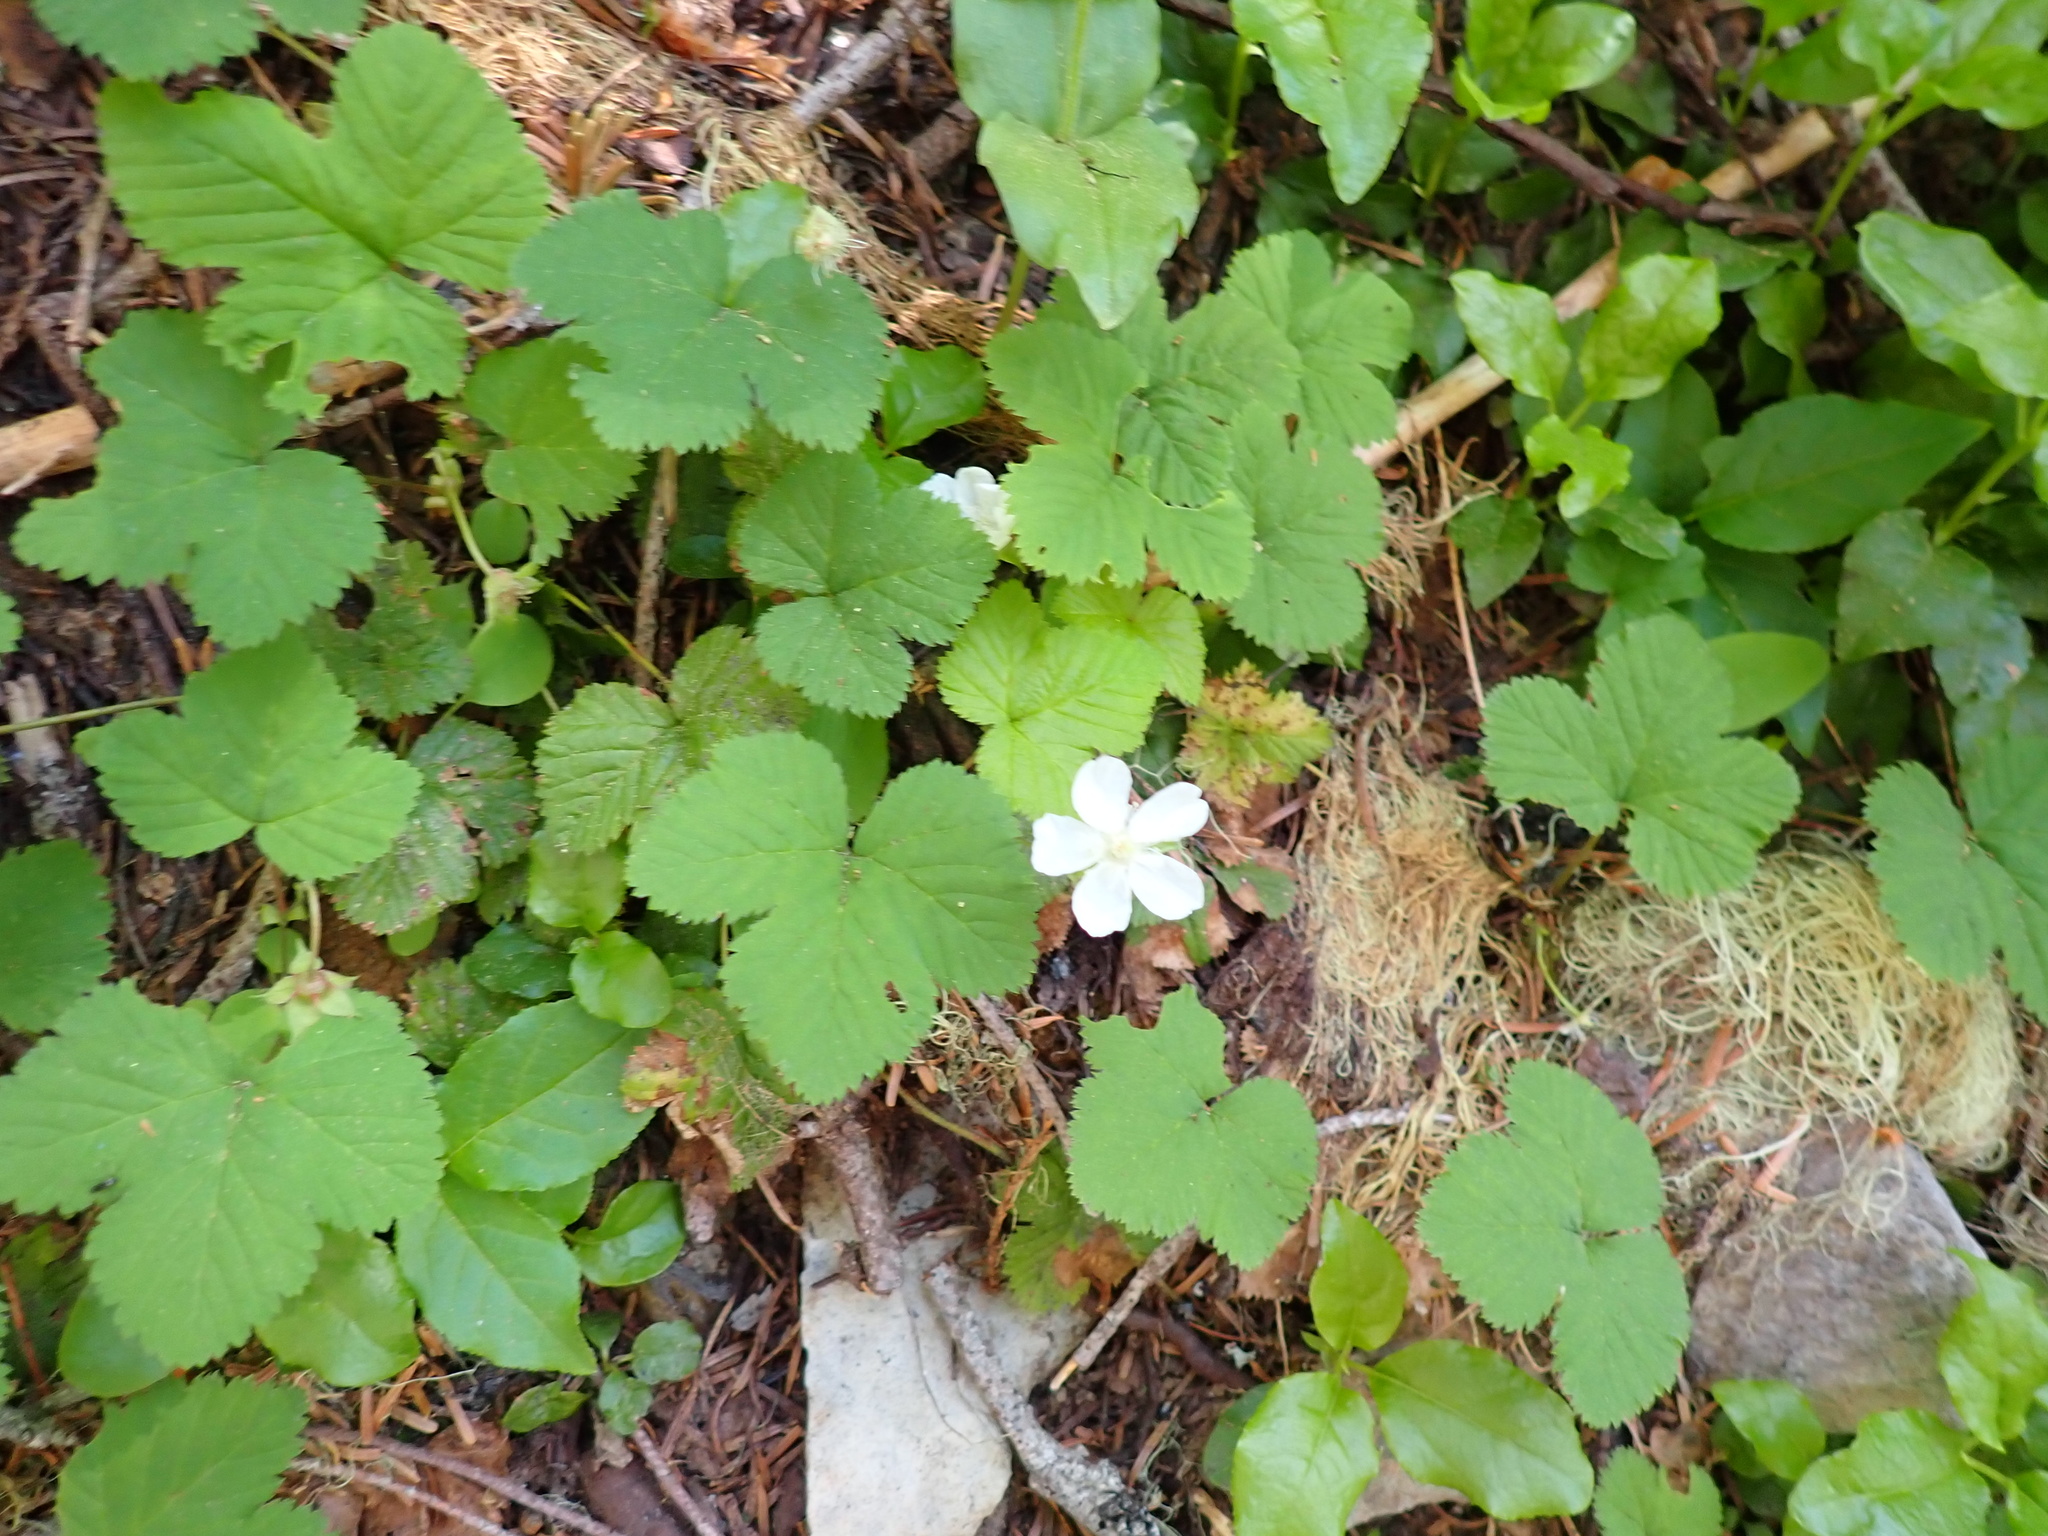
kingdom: Plantae
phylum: Tracheophyta
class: Magnoliopsida
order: Rosales
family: Rosaceae
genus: Rubus
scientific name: Rubus lasiococcus
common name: Dwarf bramble
